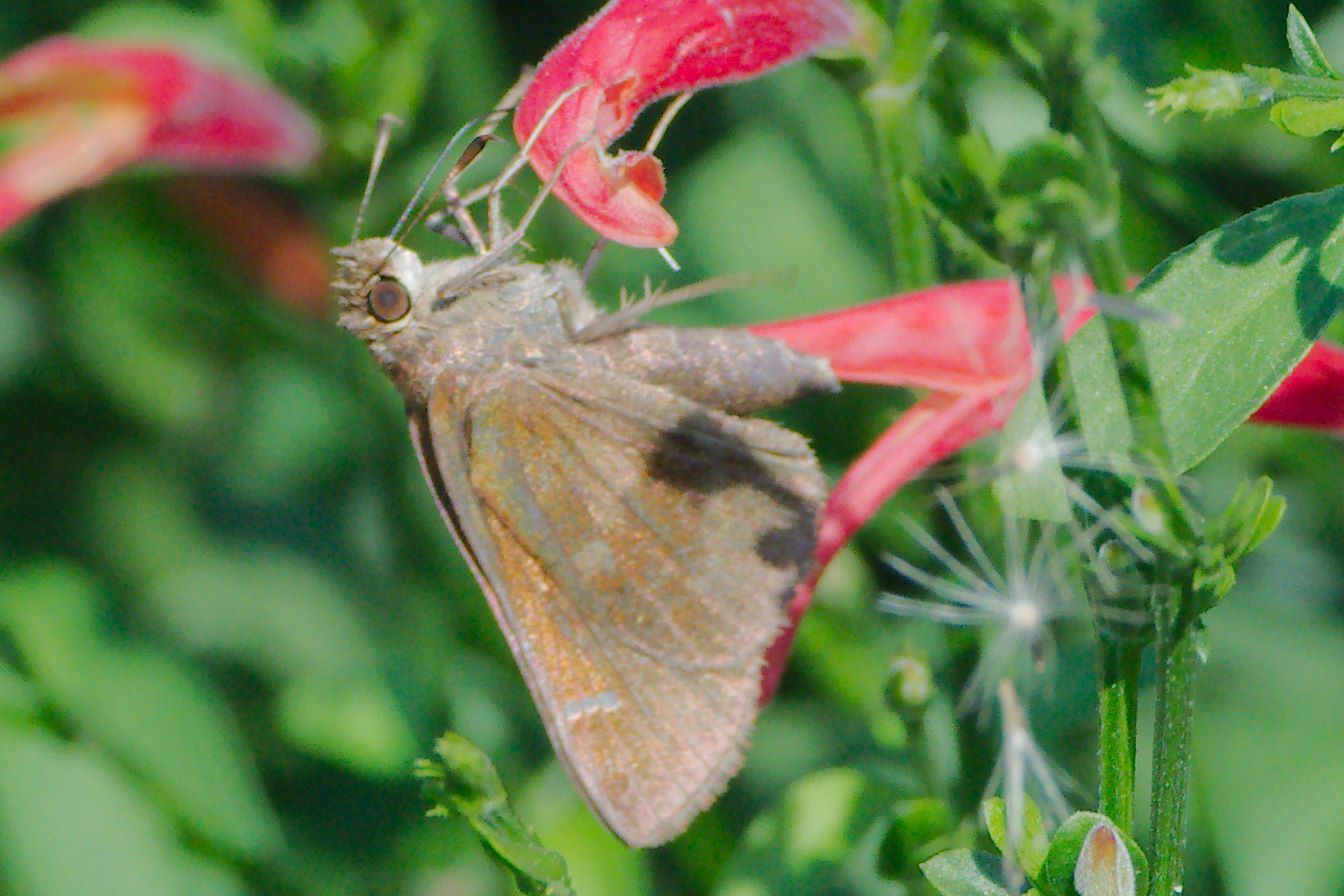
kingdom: Animalia
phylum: Arthropoda
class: Insecta
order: Lepidoptera
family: Hesperiidae
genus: Lerema
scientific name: Lerema accius
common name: Clouded skipper
